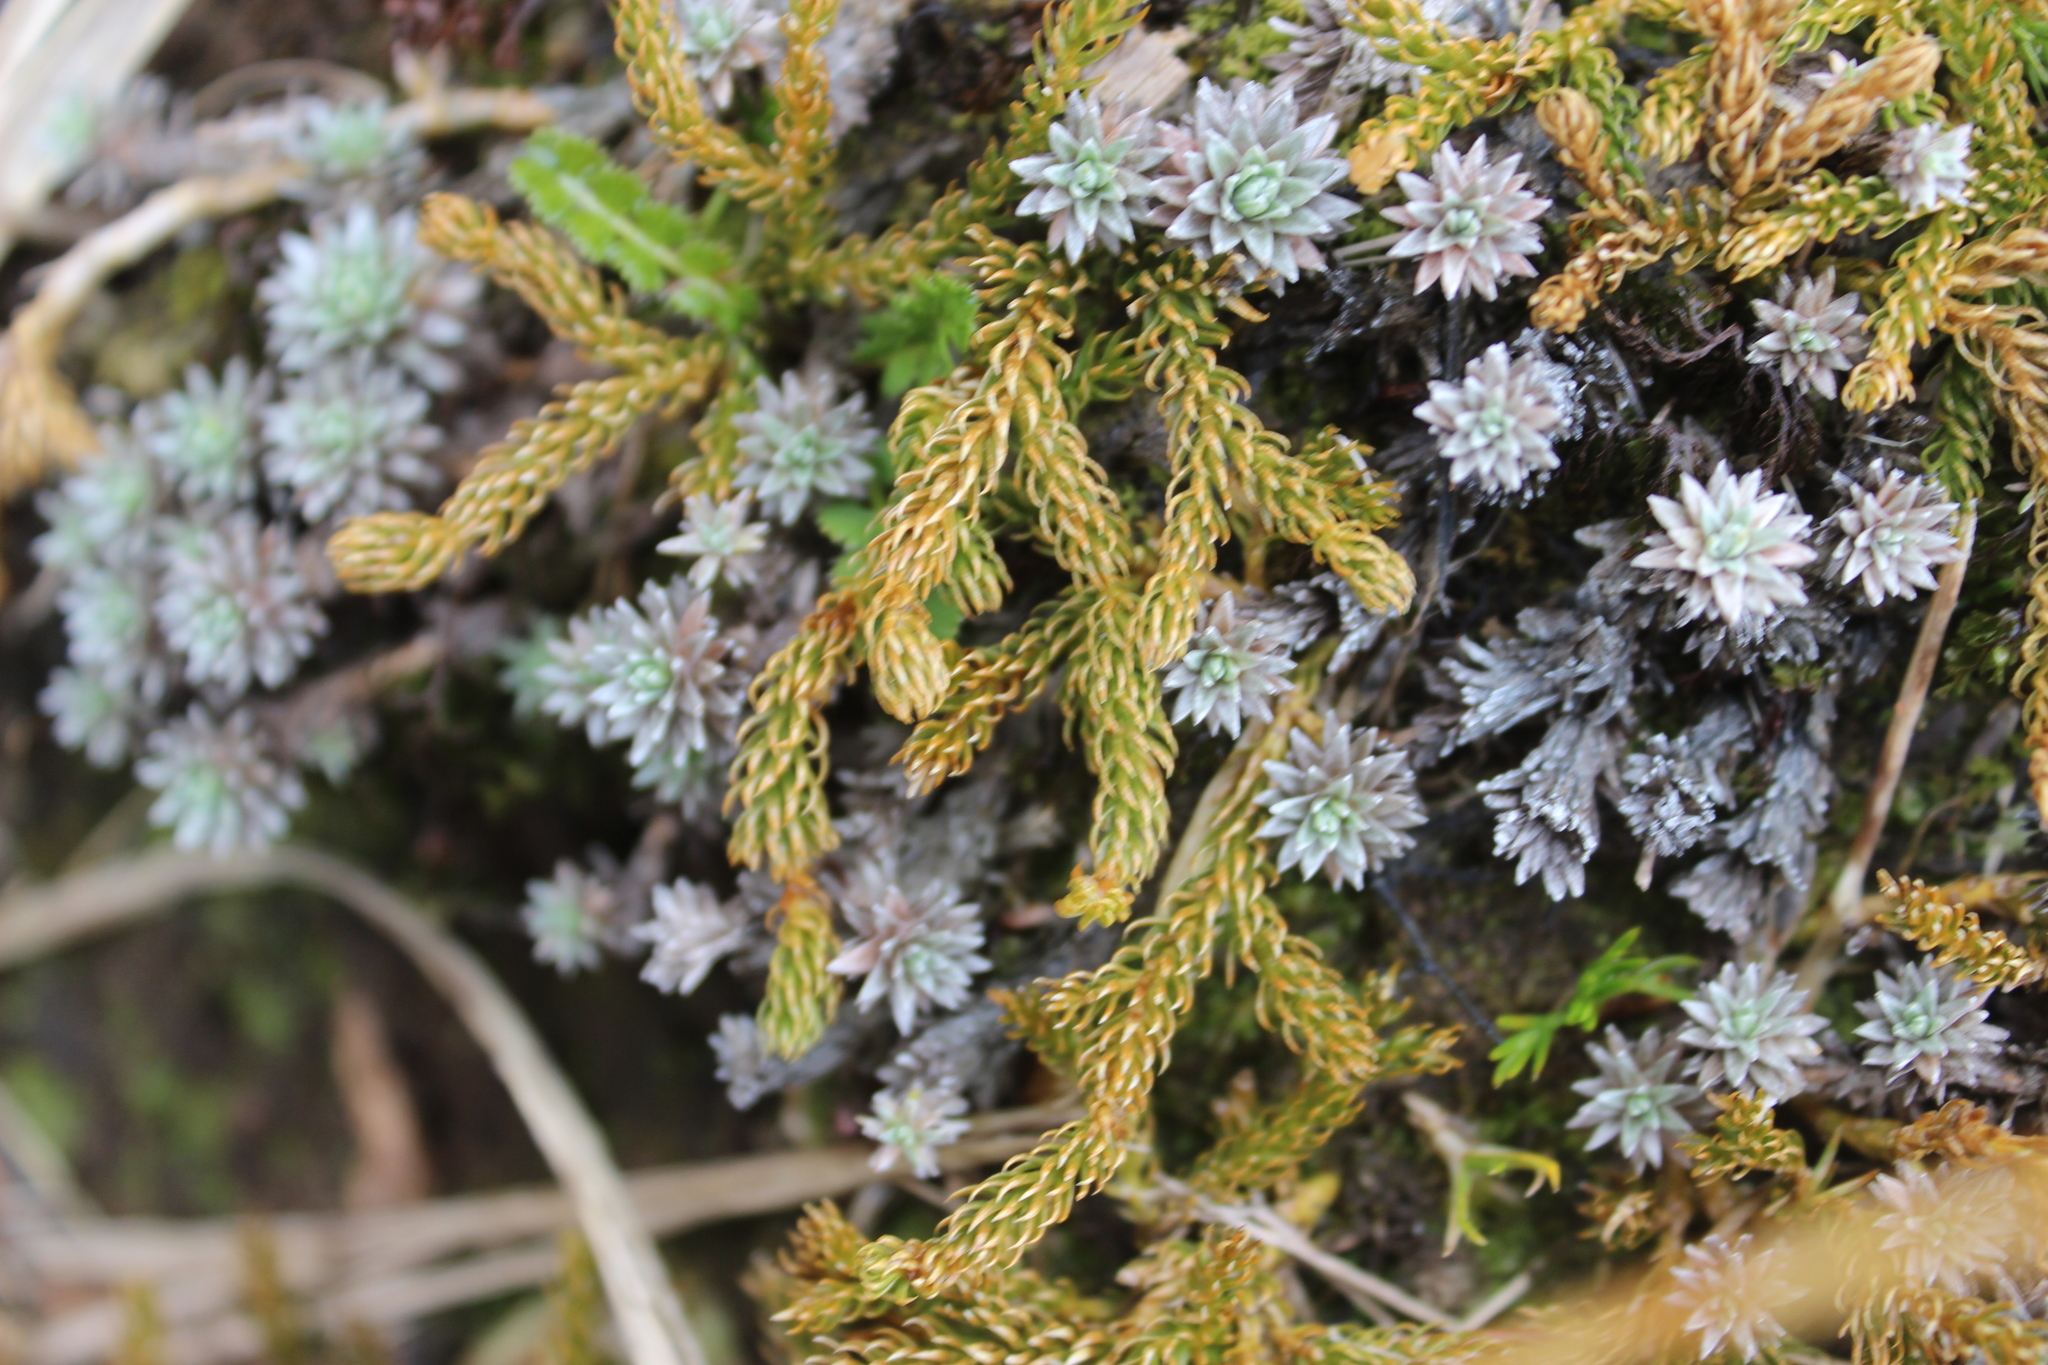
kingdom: Plantae
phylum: Tracheophyta
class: Lycopodiopsida
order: Lycopodiales
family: Lycopodiaceae
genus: Austrolycopodium
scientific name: Austrolycopodium fastigiatum
